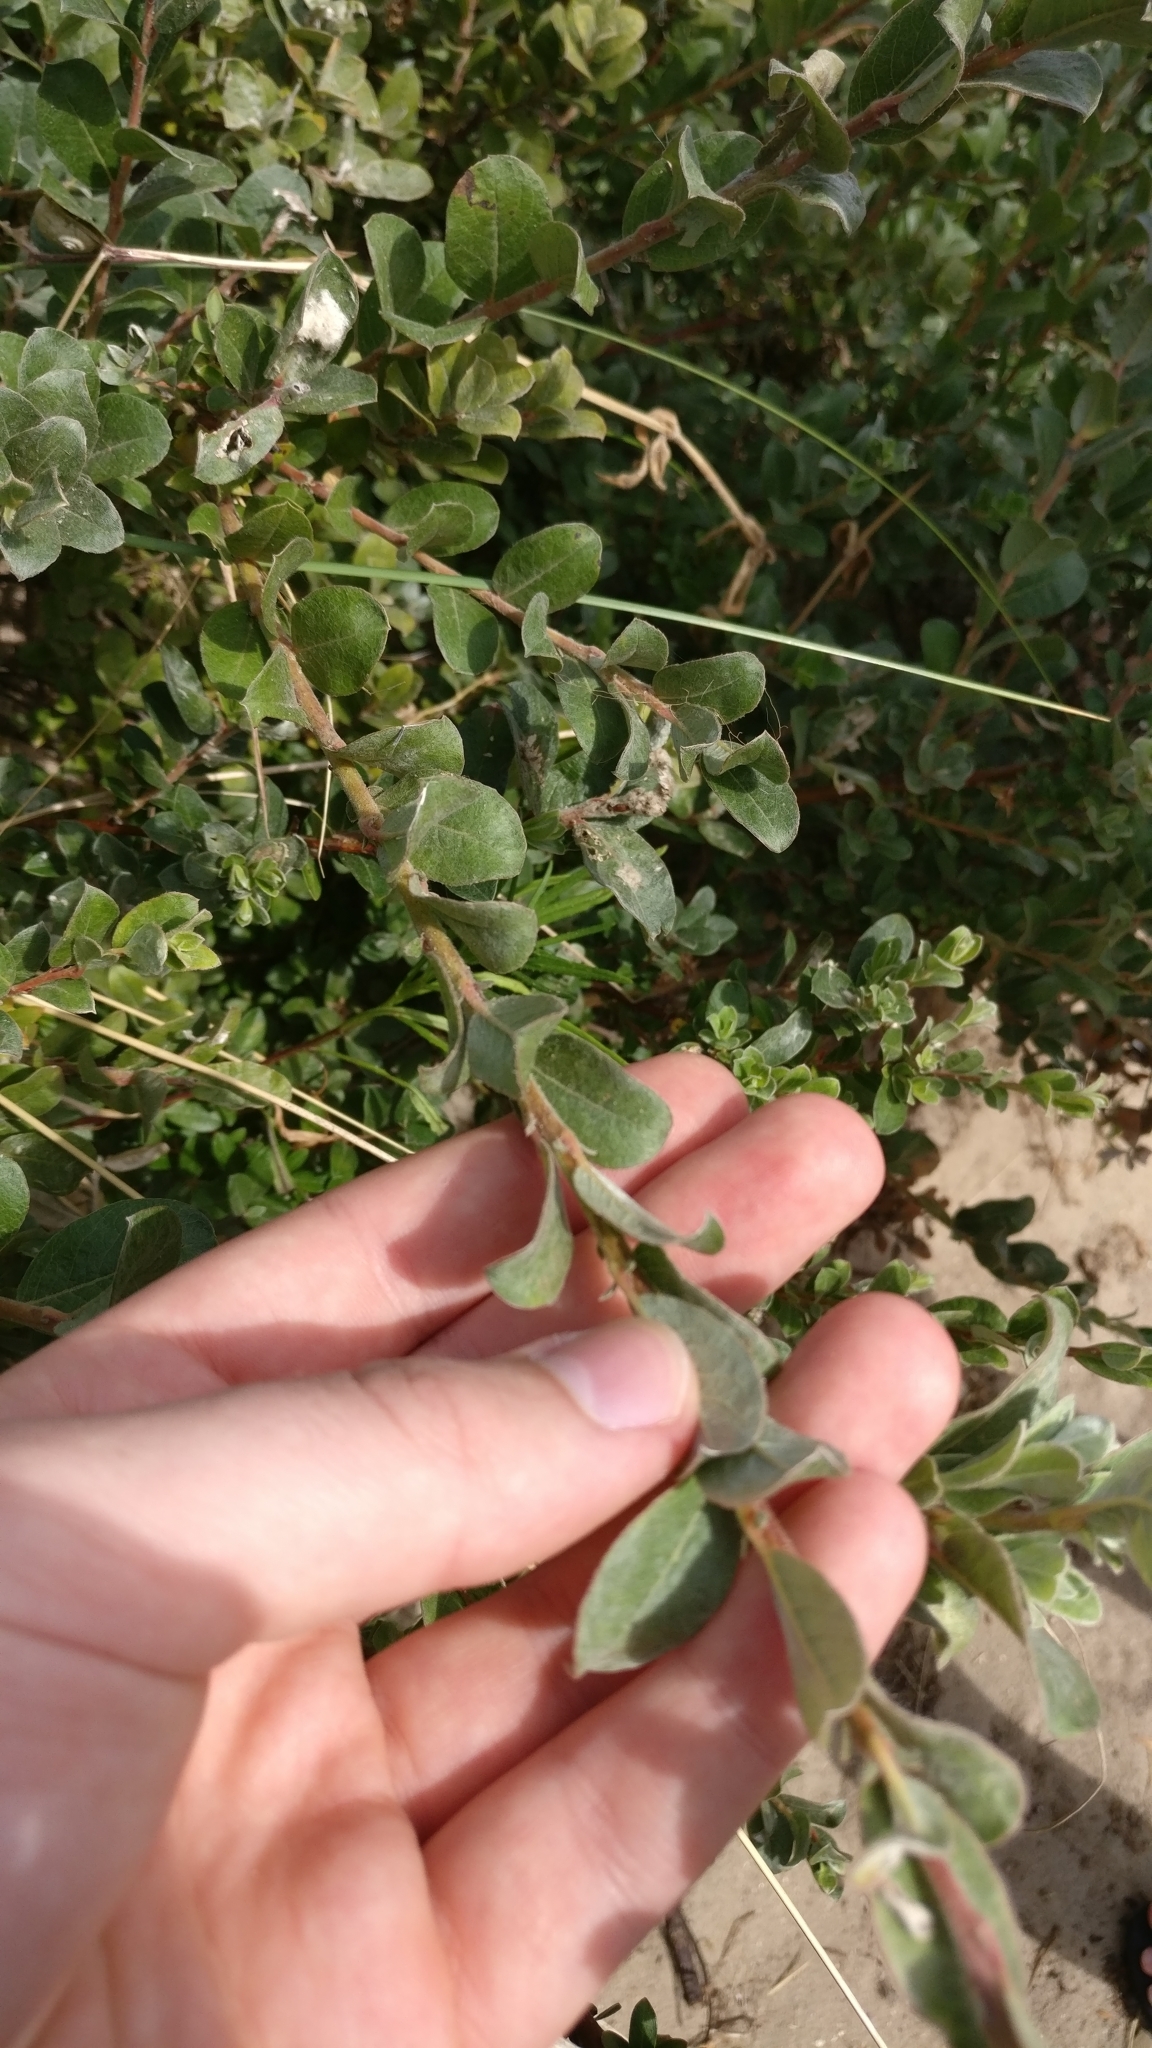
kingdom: Plantae
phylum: Tracheophyta
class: Magnoliopsida
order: Malpighiales
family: Salicaceae
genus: Salix
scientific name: Salix repens
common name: Creeping willow
